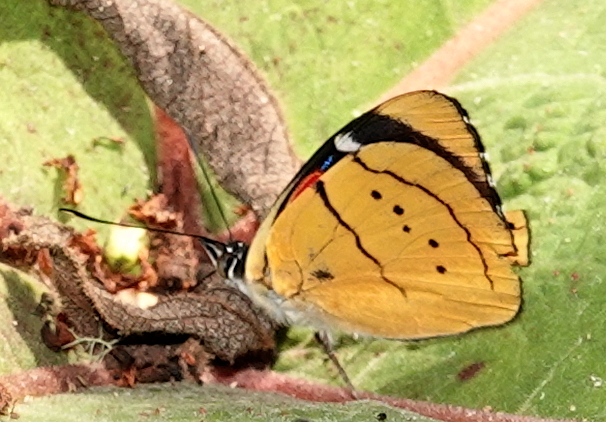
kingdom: Animalia
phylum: Arthropoda
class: Insecta
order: Lepidoptera
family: Nymphalidae
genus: Perisama
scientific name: Perisama humboldtii
